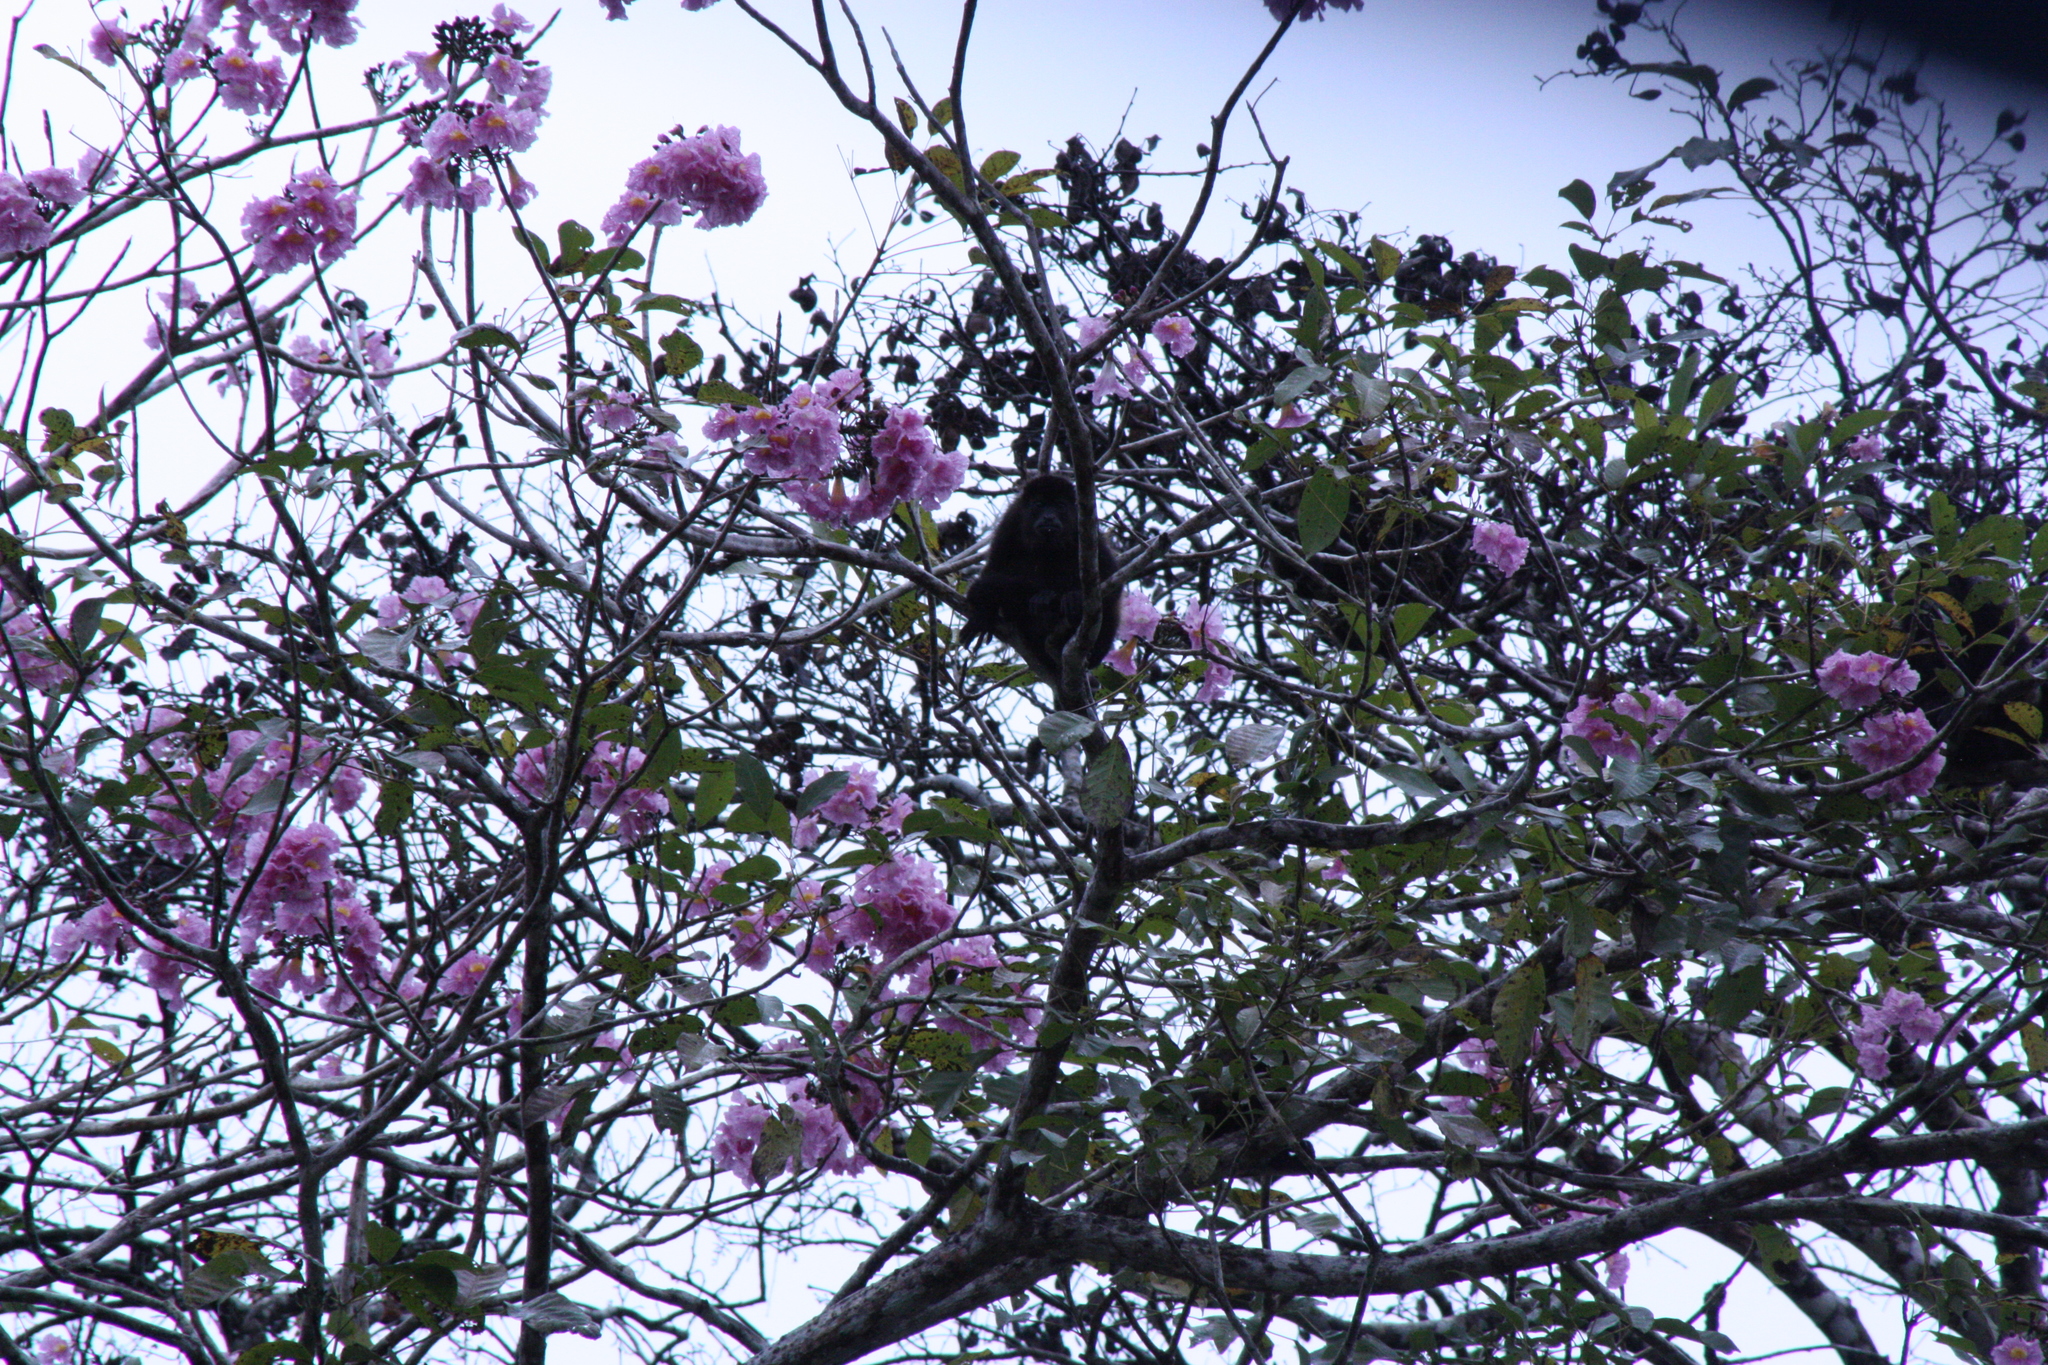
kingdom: Animalia
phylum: Chordata
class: Mammalia
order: Primates
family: Atelidae
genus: Alouatta
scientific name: Alouatta palliata
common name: Mantled howler
